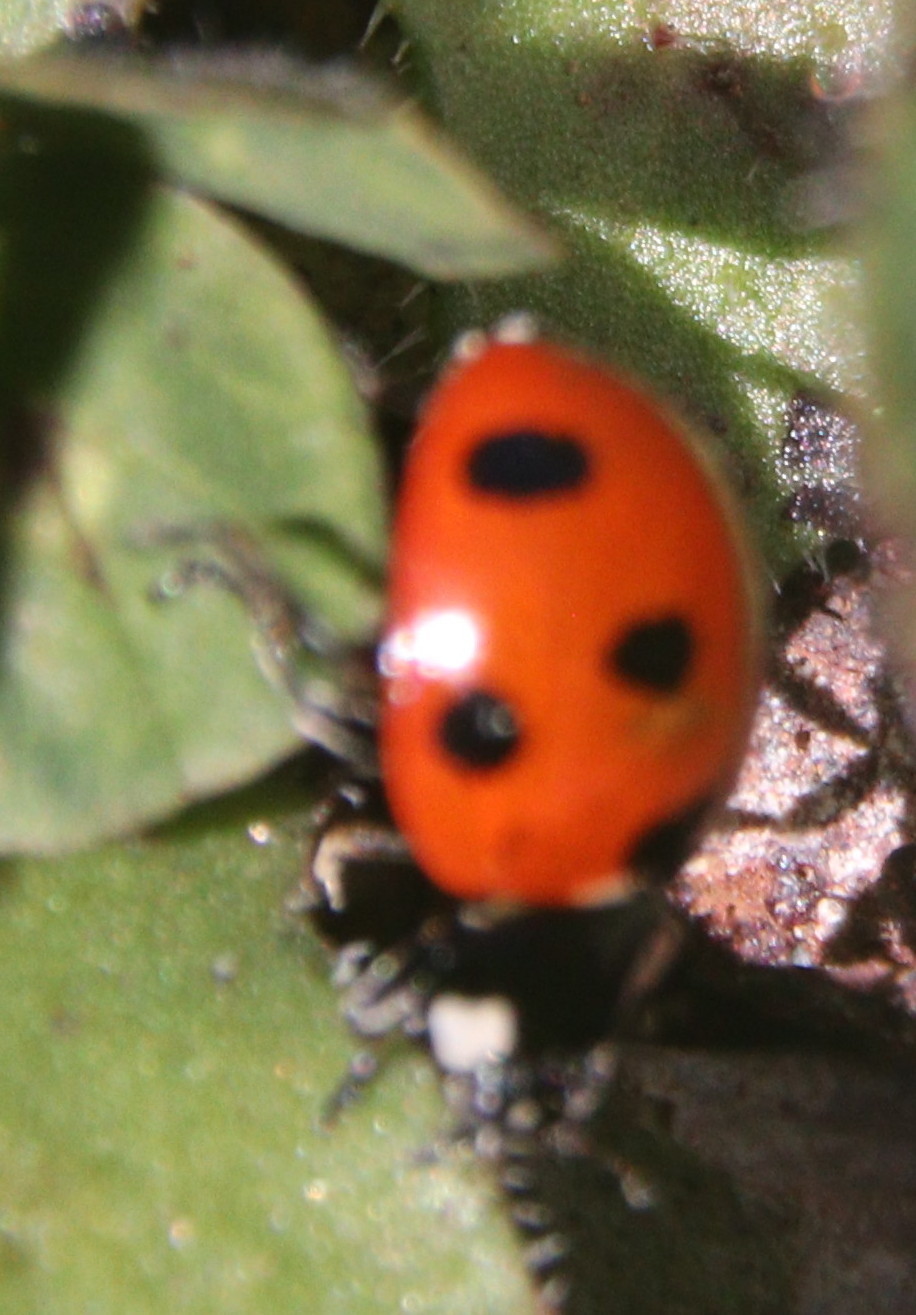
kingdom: Animalia
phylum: Arthropoda
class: Insecta
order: Coleoptera
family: Coccinellidae
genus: Coccinella
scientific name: Coccinella algerica
